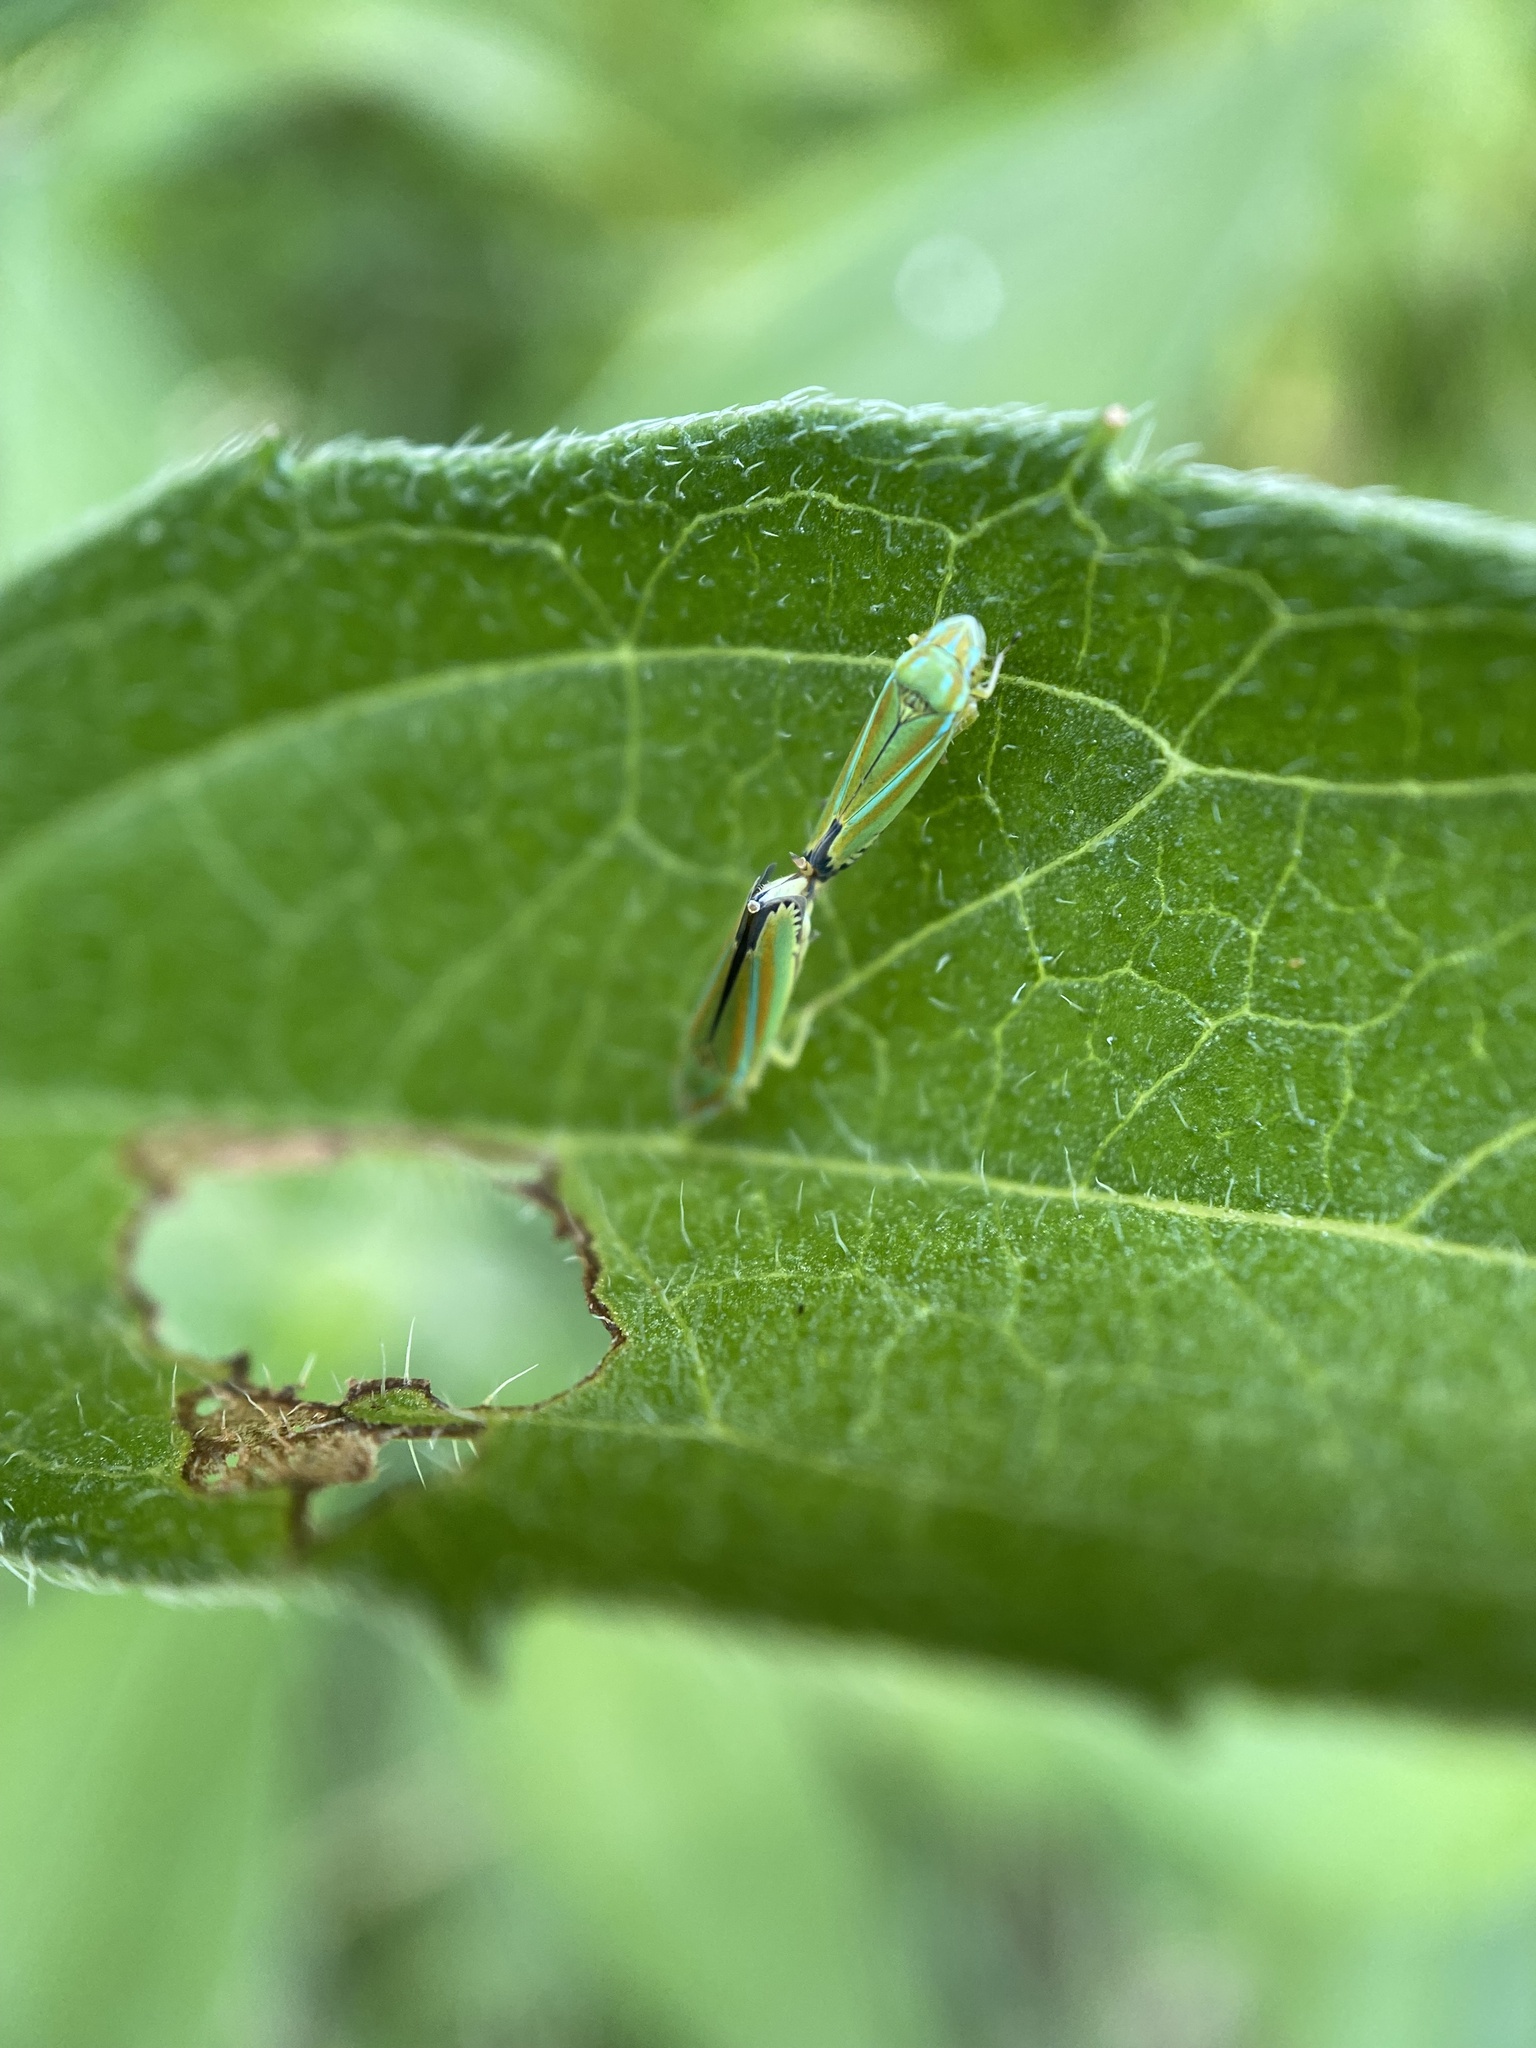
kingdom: Animalia
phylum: Arthropoda
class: Insecta
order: Hemiptera
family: Cicadellidae
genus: Graphocephala
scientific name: Graphocephala versuta
